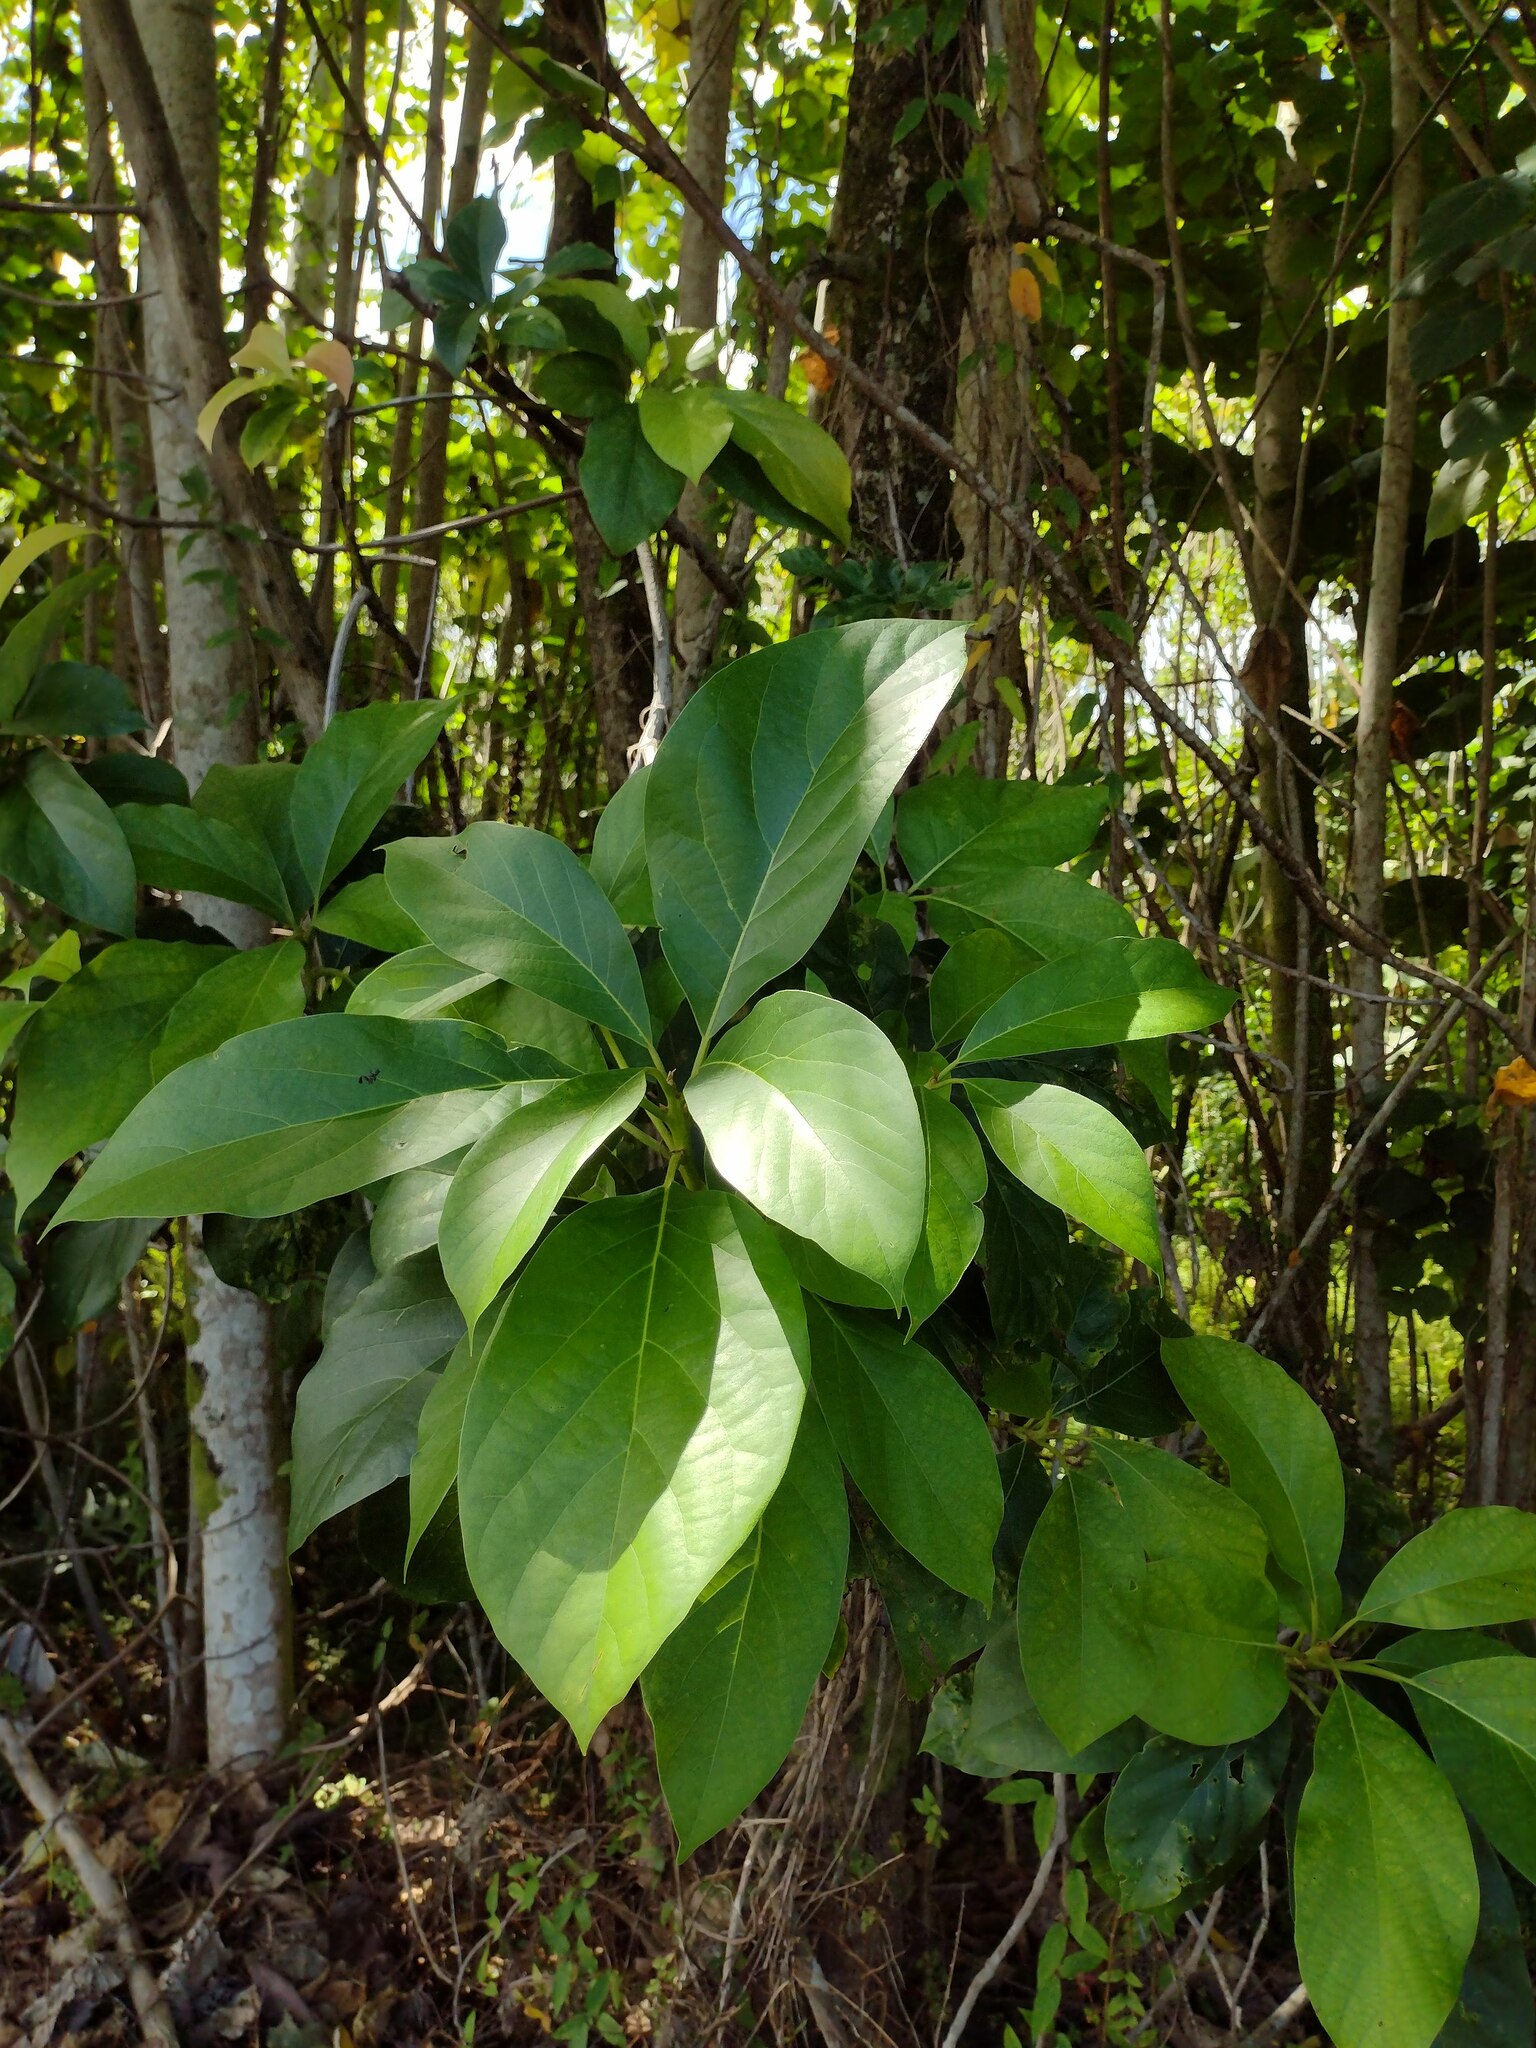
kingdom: Plantae
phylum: Tracheophyta
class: Magnoliopsida
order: Laurales
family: Lauraceae
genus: Persea
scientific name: Persea americana
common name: Avocado
